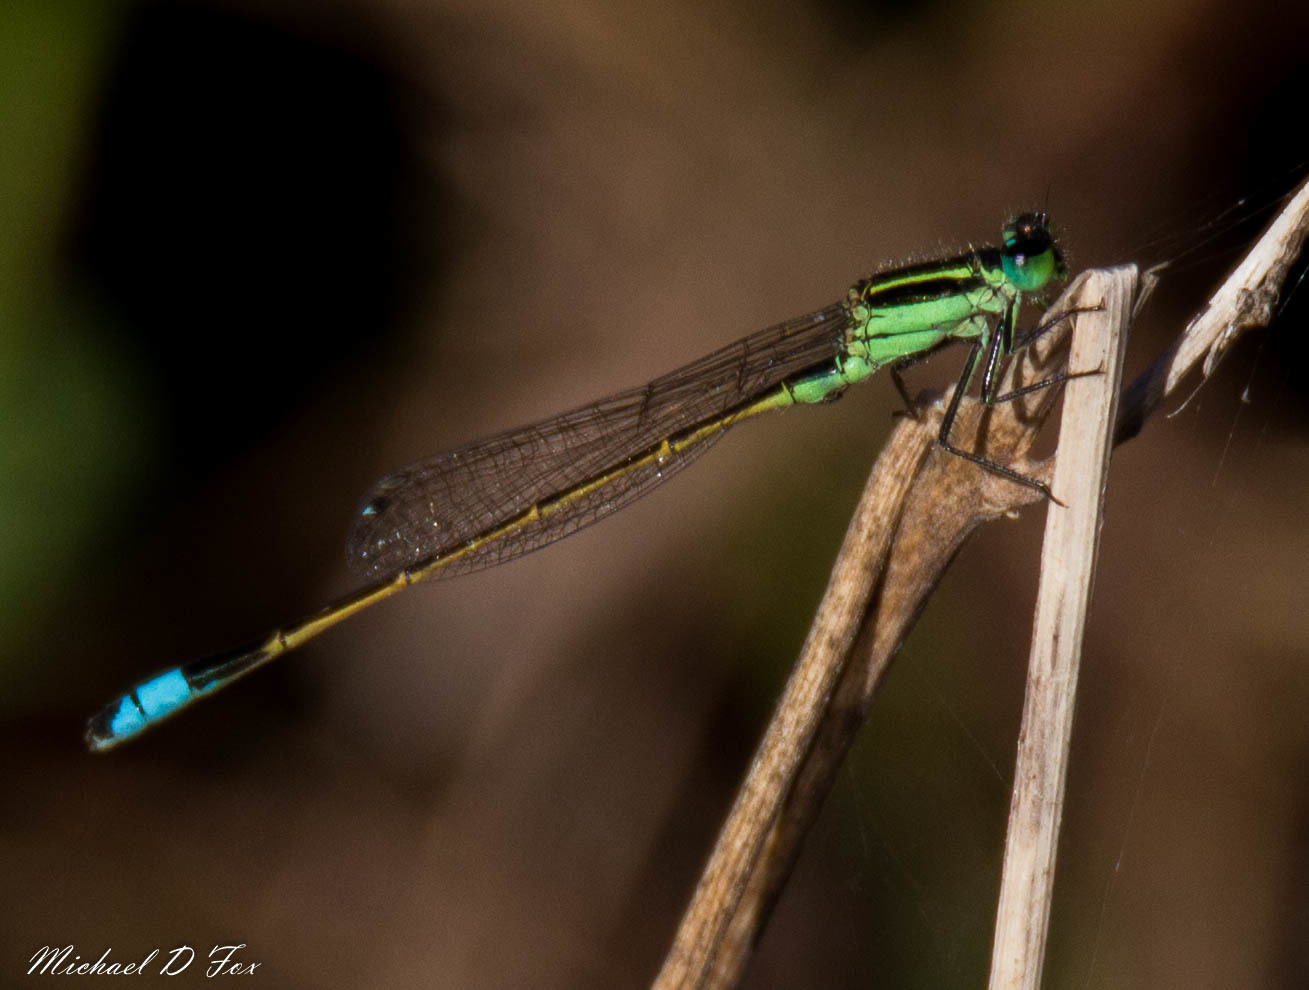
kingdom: Animalia
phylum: Arthropoda
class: Insecta
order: Odonata
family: Coenagrionidae
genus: Ischnura
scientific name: Ischnura ramburii
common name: Rambur's forktail
